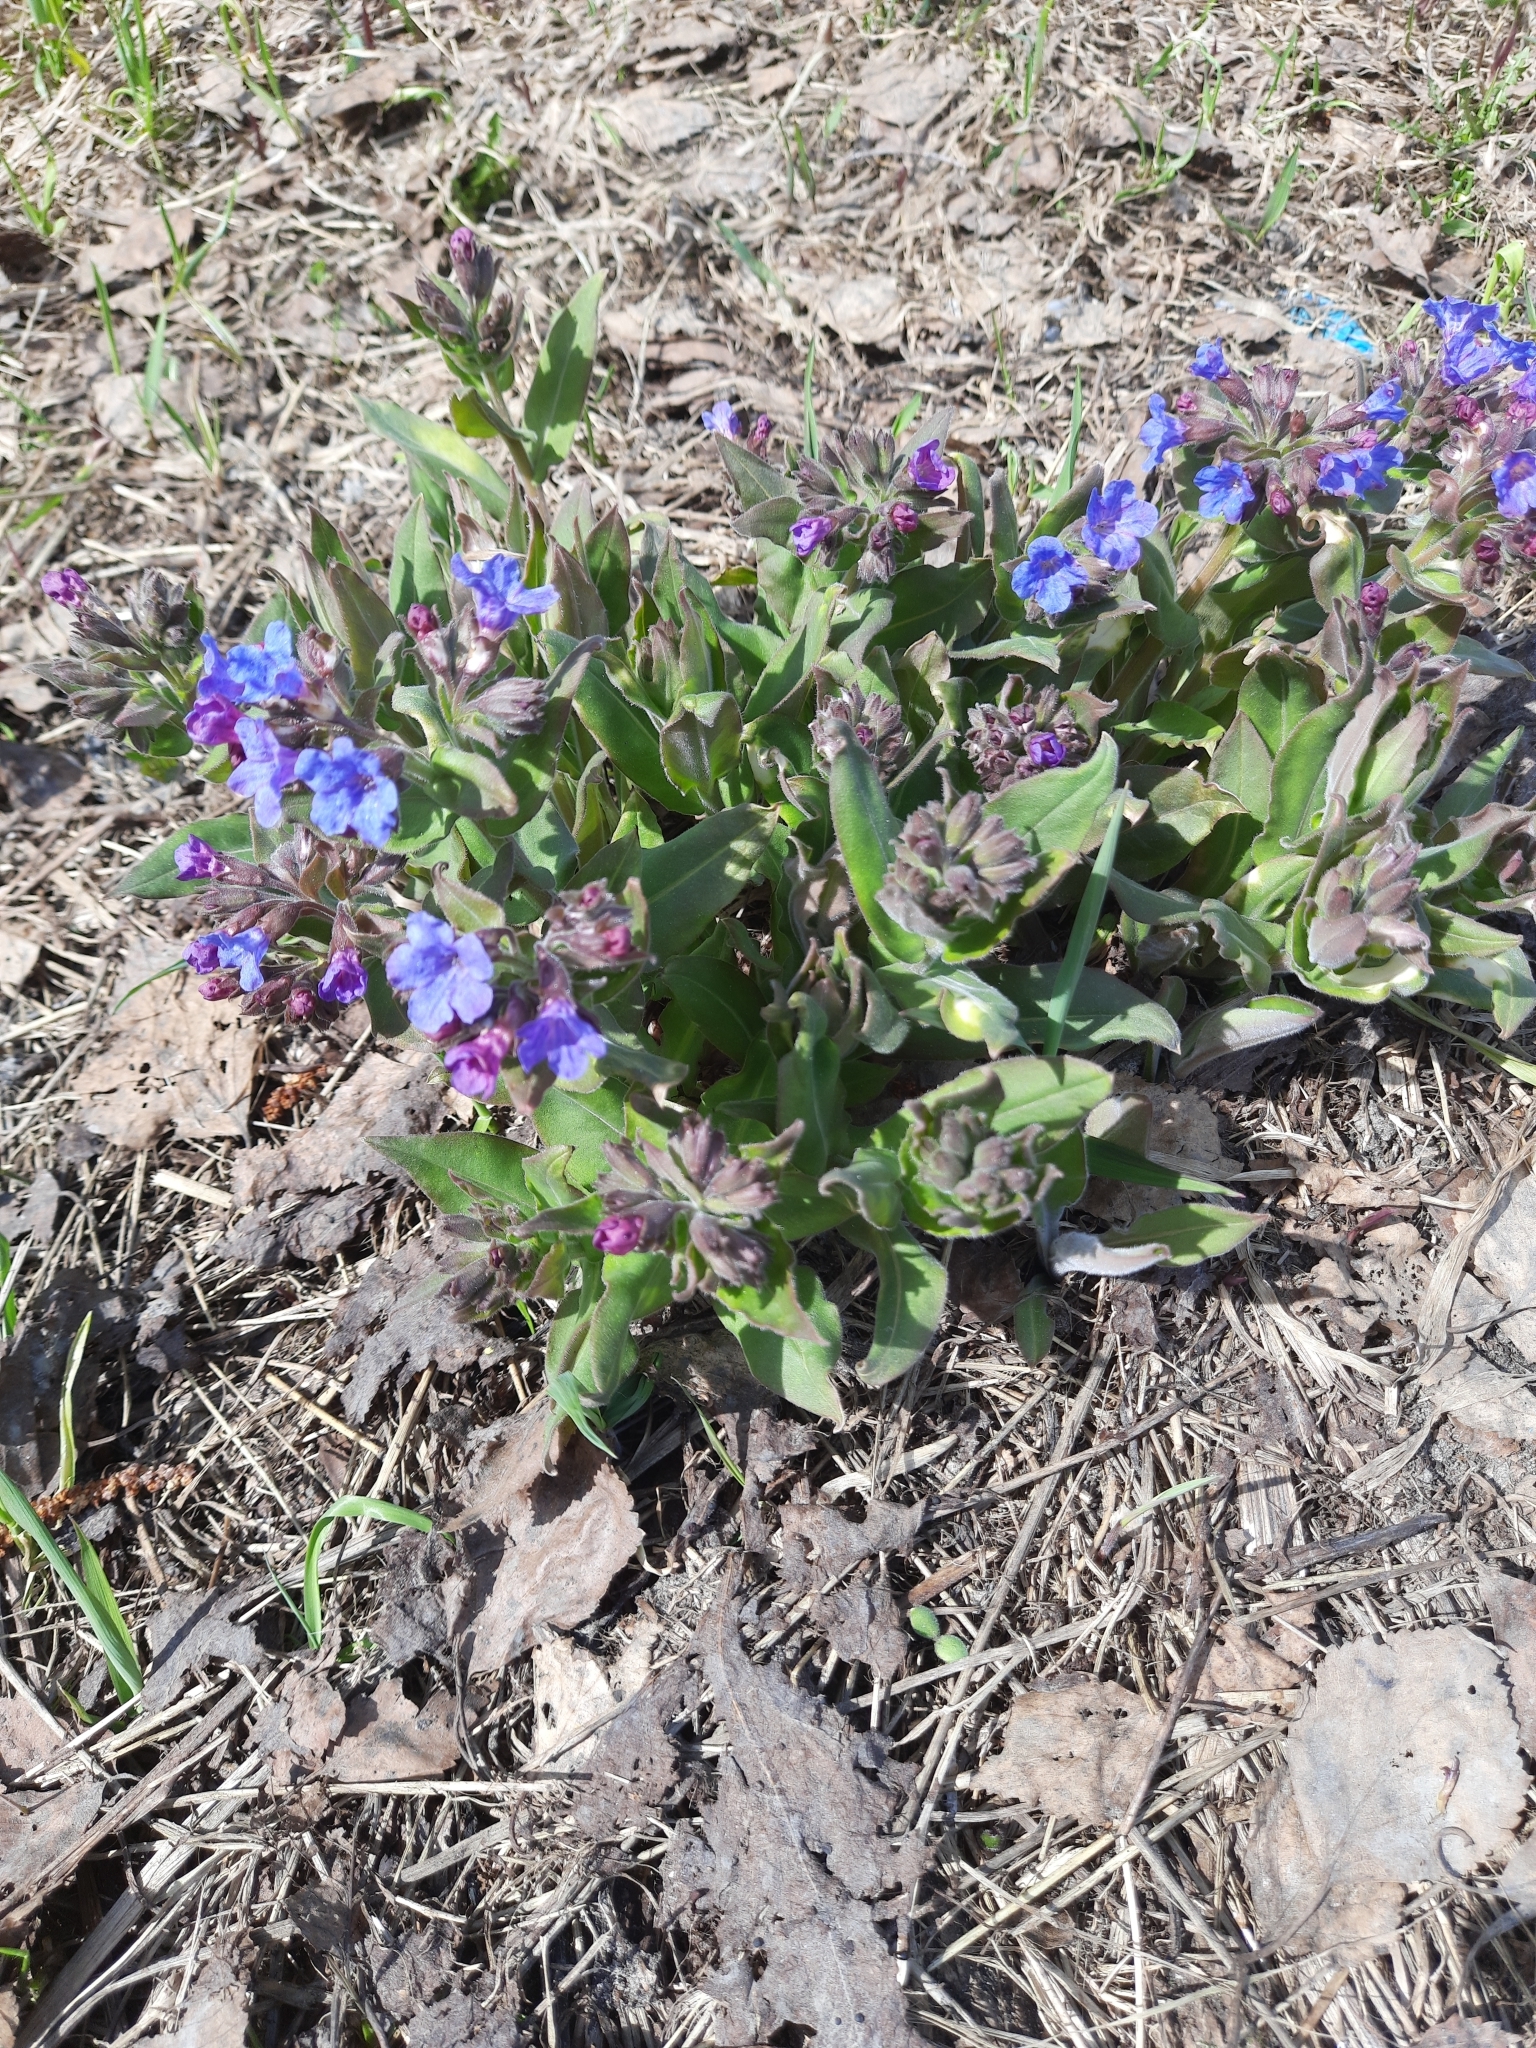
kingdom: Plantae
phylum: Tracheophyta
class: Magnoliopsida
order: Boraginales
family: Boraginaceae
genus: Pulmonaria
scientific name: Pulmonaria mollis
